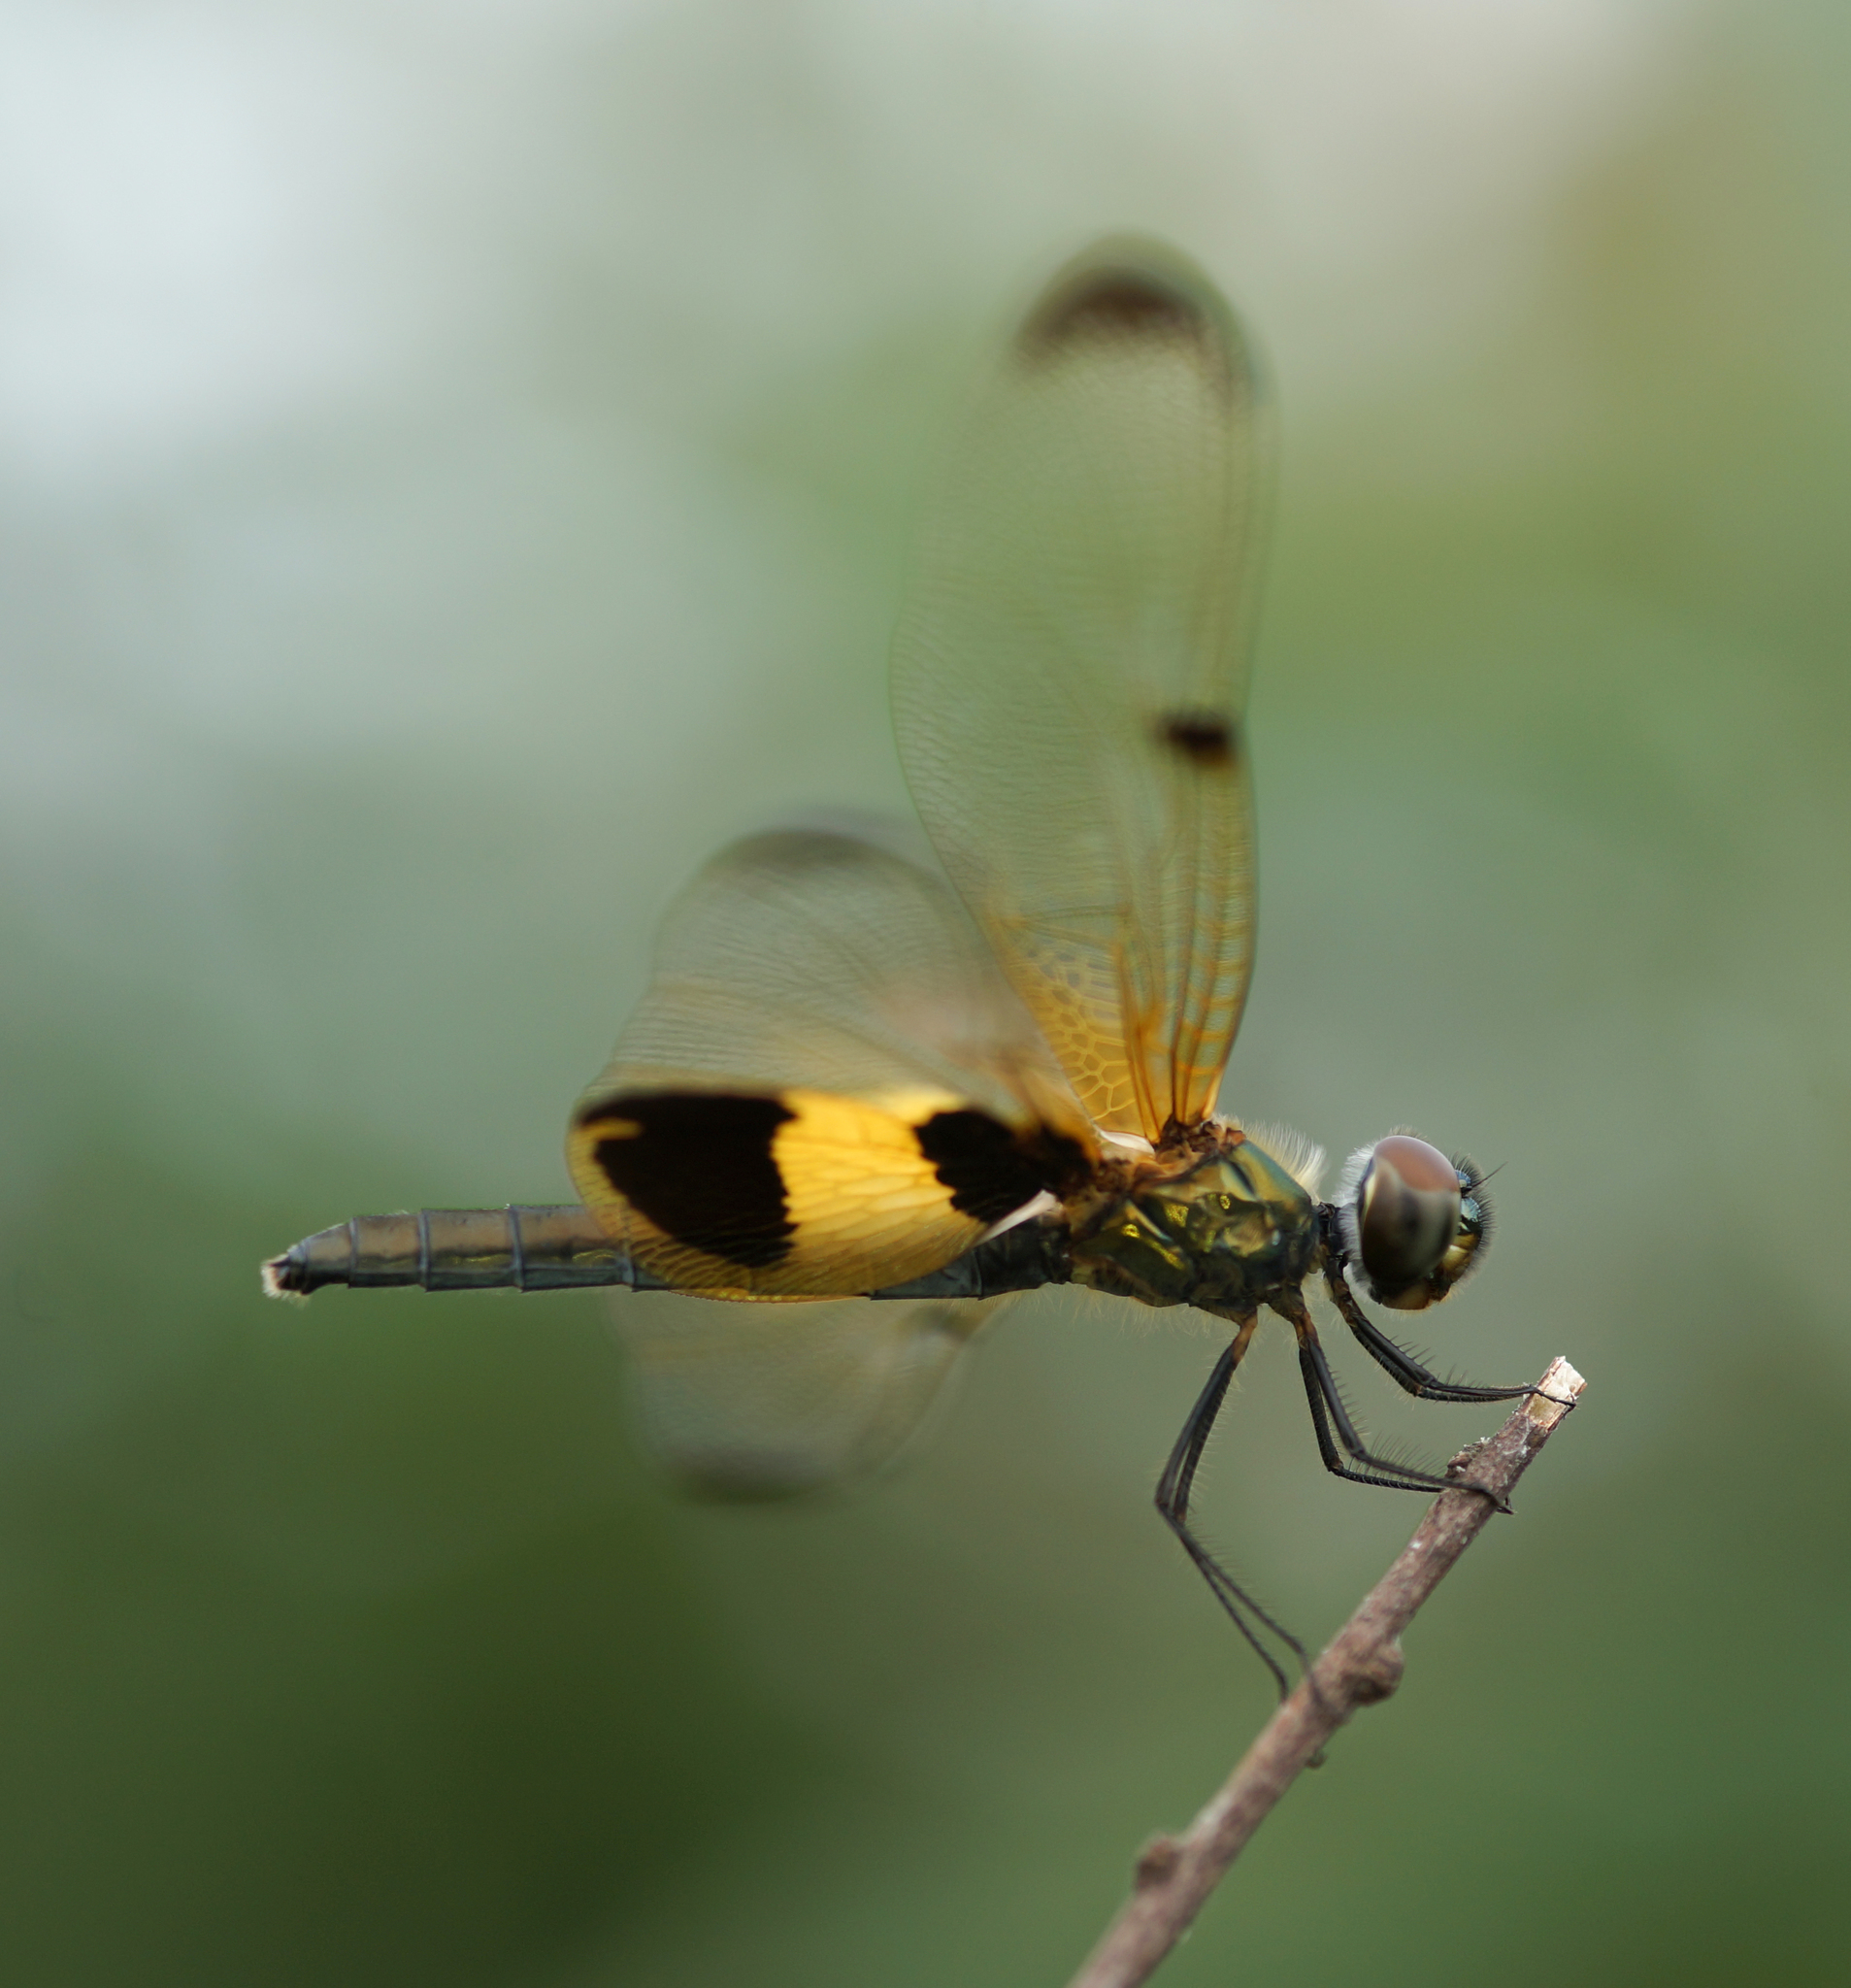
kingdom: Animalia
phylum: Arthropoda
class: Insecta
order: Odonata
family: Libellulidae
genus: Rhyothemis
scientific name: Rhyothemis phyllis
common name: Yellow-barred flutterer
